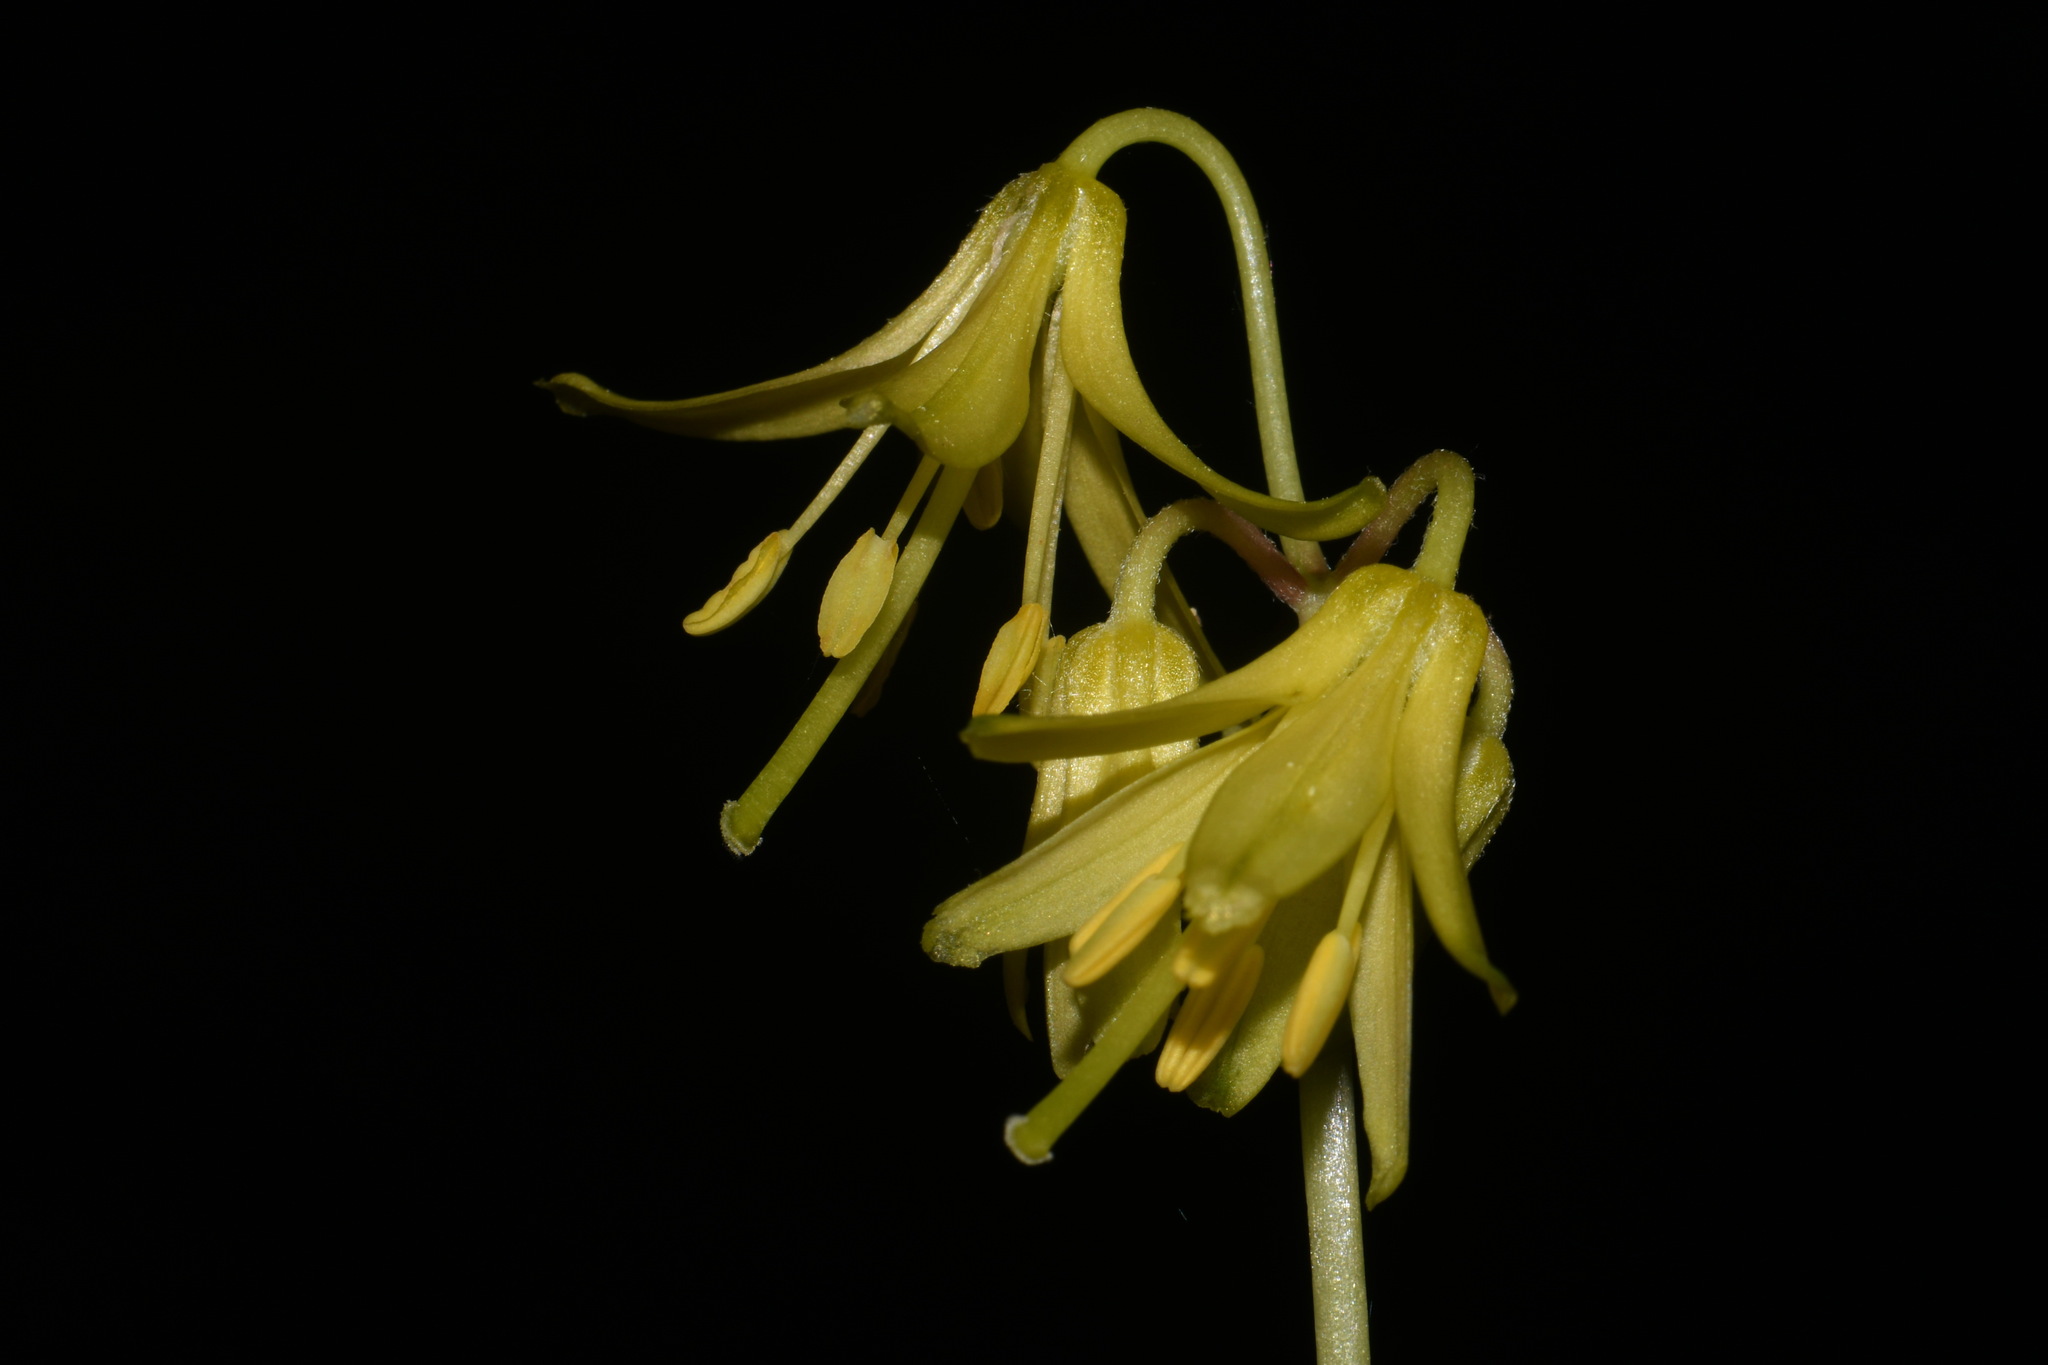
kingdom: Plantae
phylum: Tracheophyta
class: Liliopsida
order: Liliales
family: Liliaceae
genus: Clintonia
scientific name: Clintonia borealis
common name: Yellow clintonia
